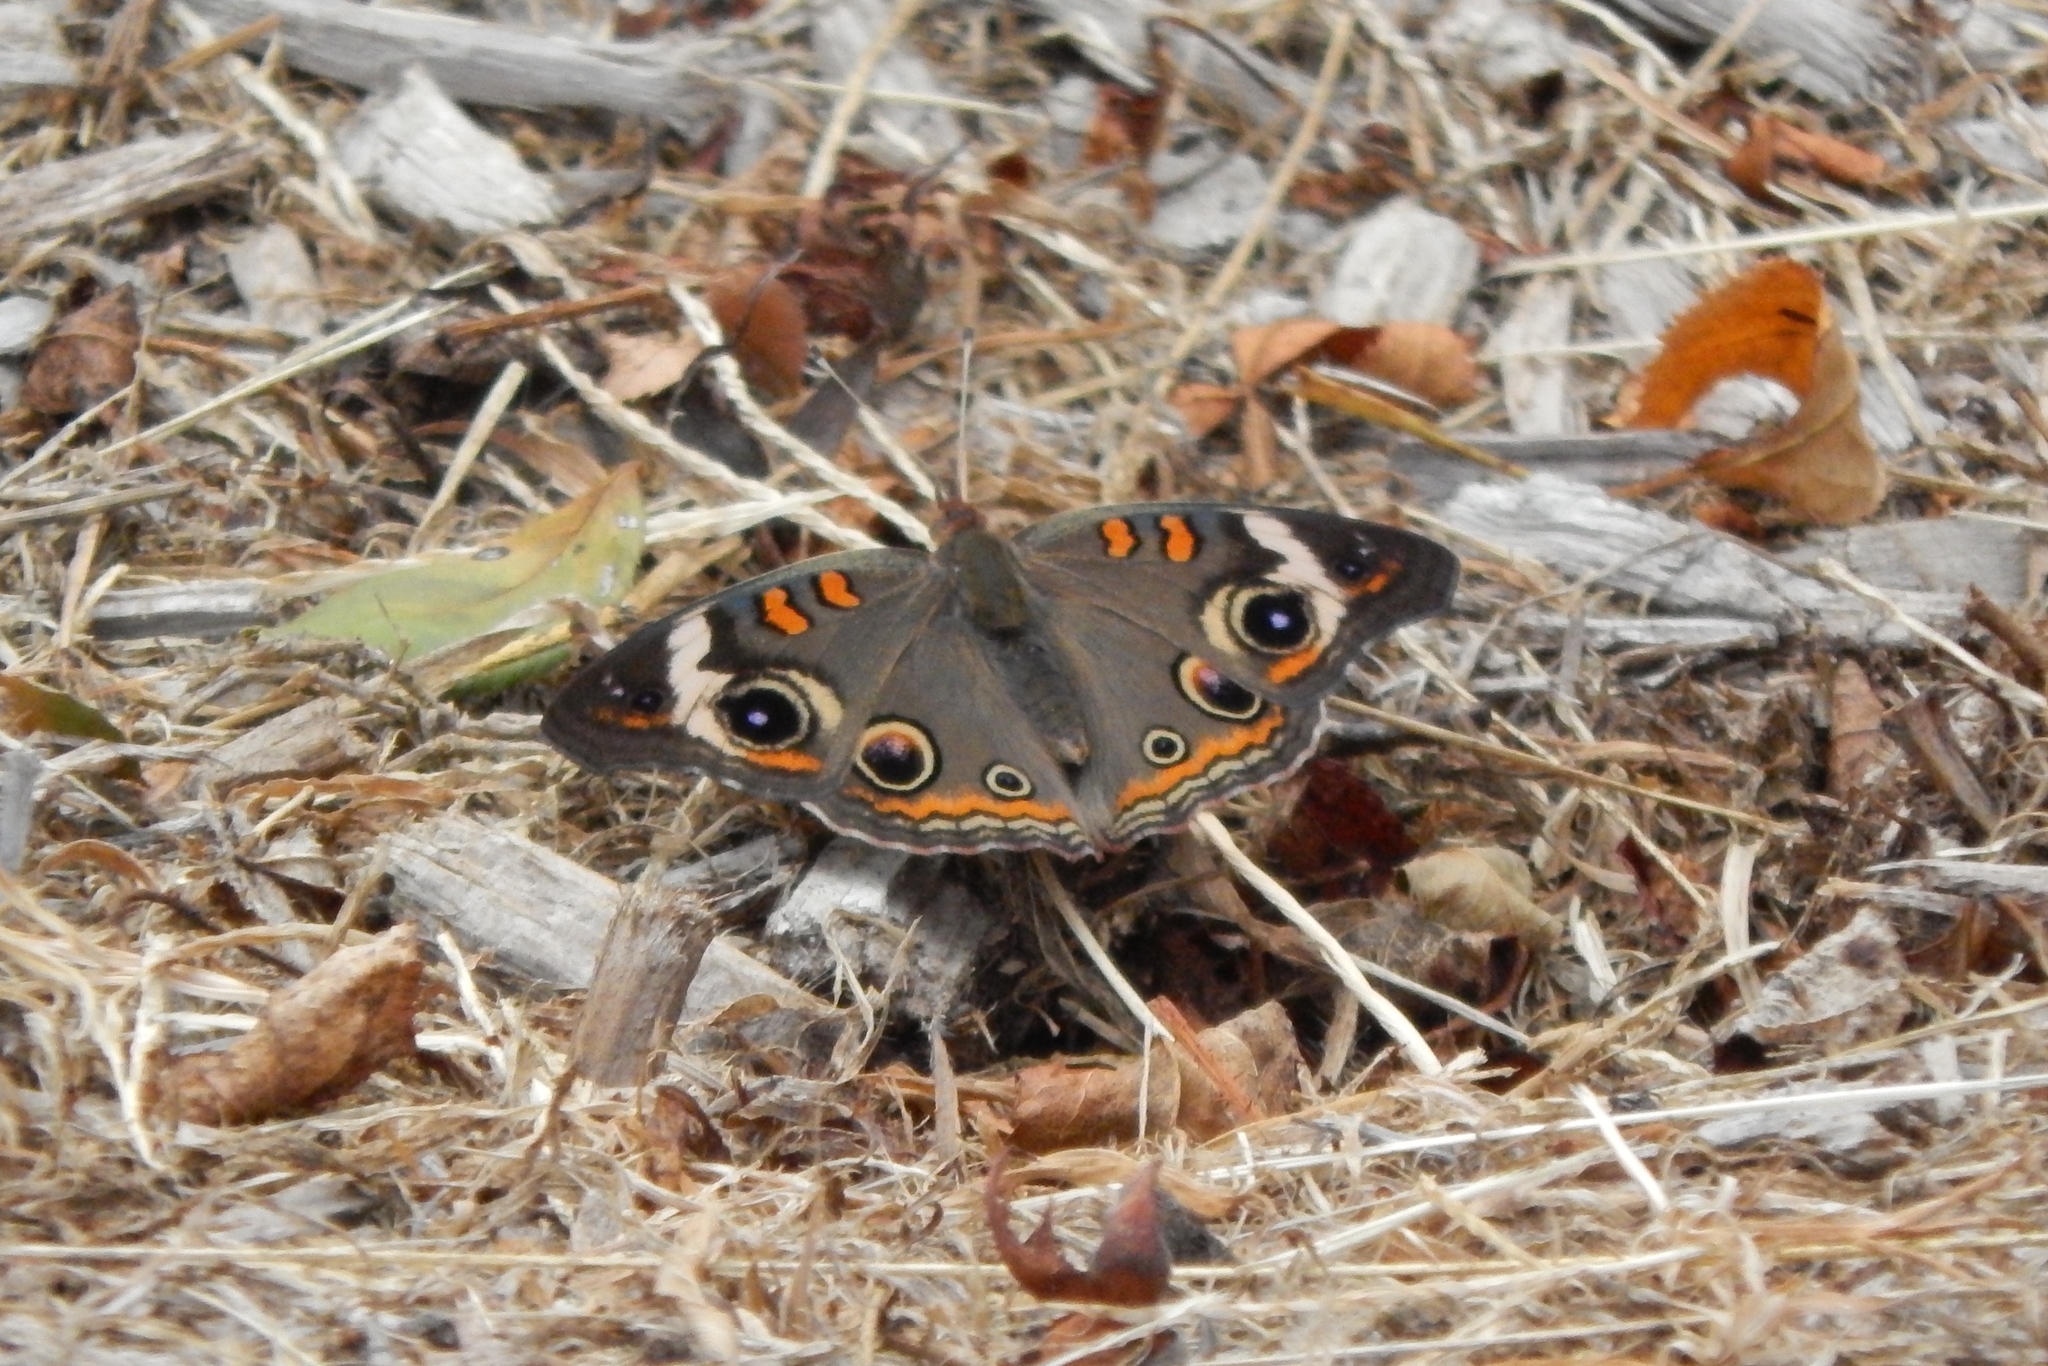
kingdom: Animalia
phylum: Arthropoda
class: Insecta
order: Lepidoptera
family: Nymphalidae
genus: Junonia
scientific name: Junonia coenia
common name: Common buckeye
